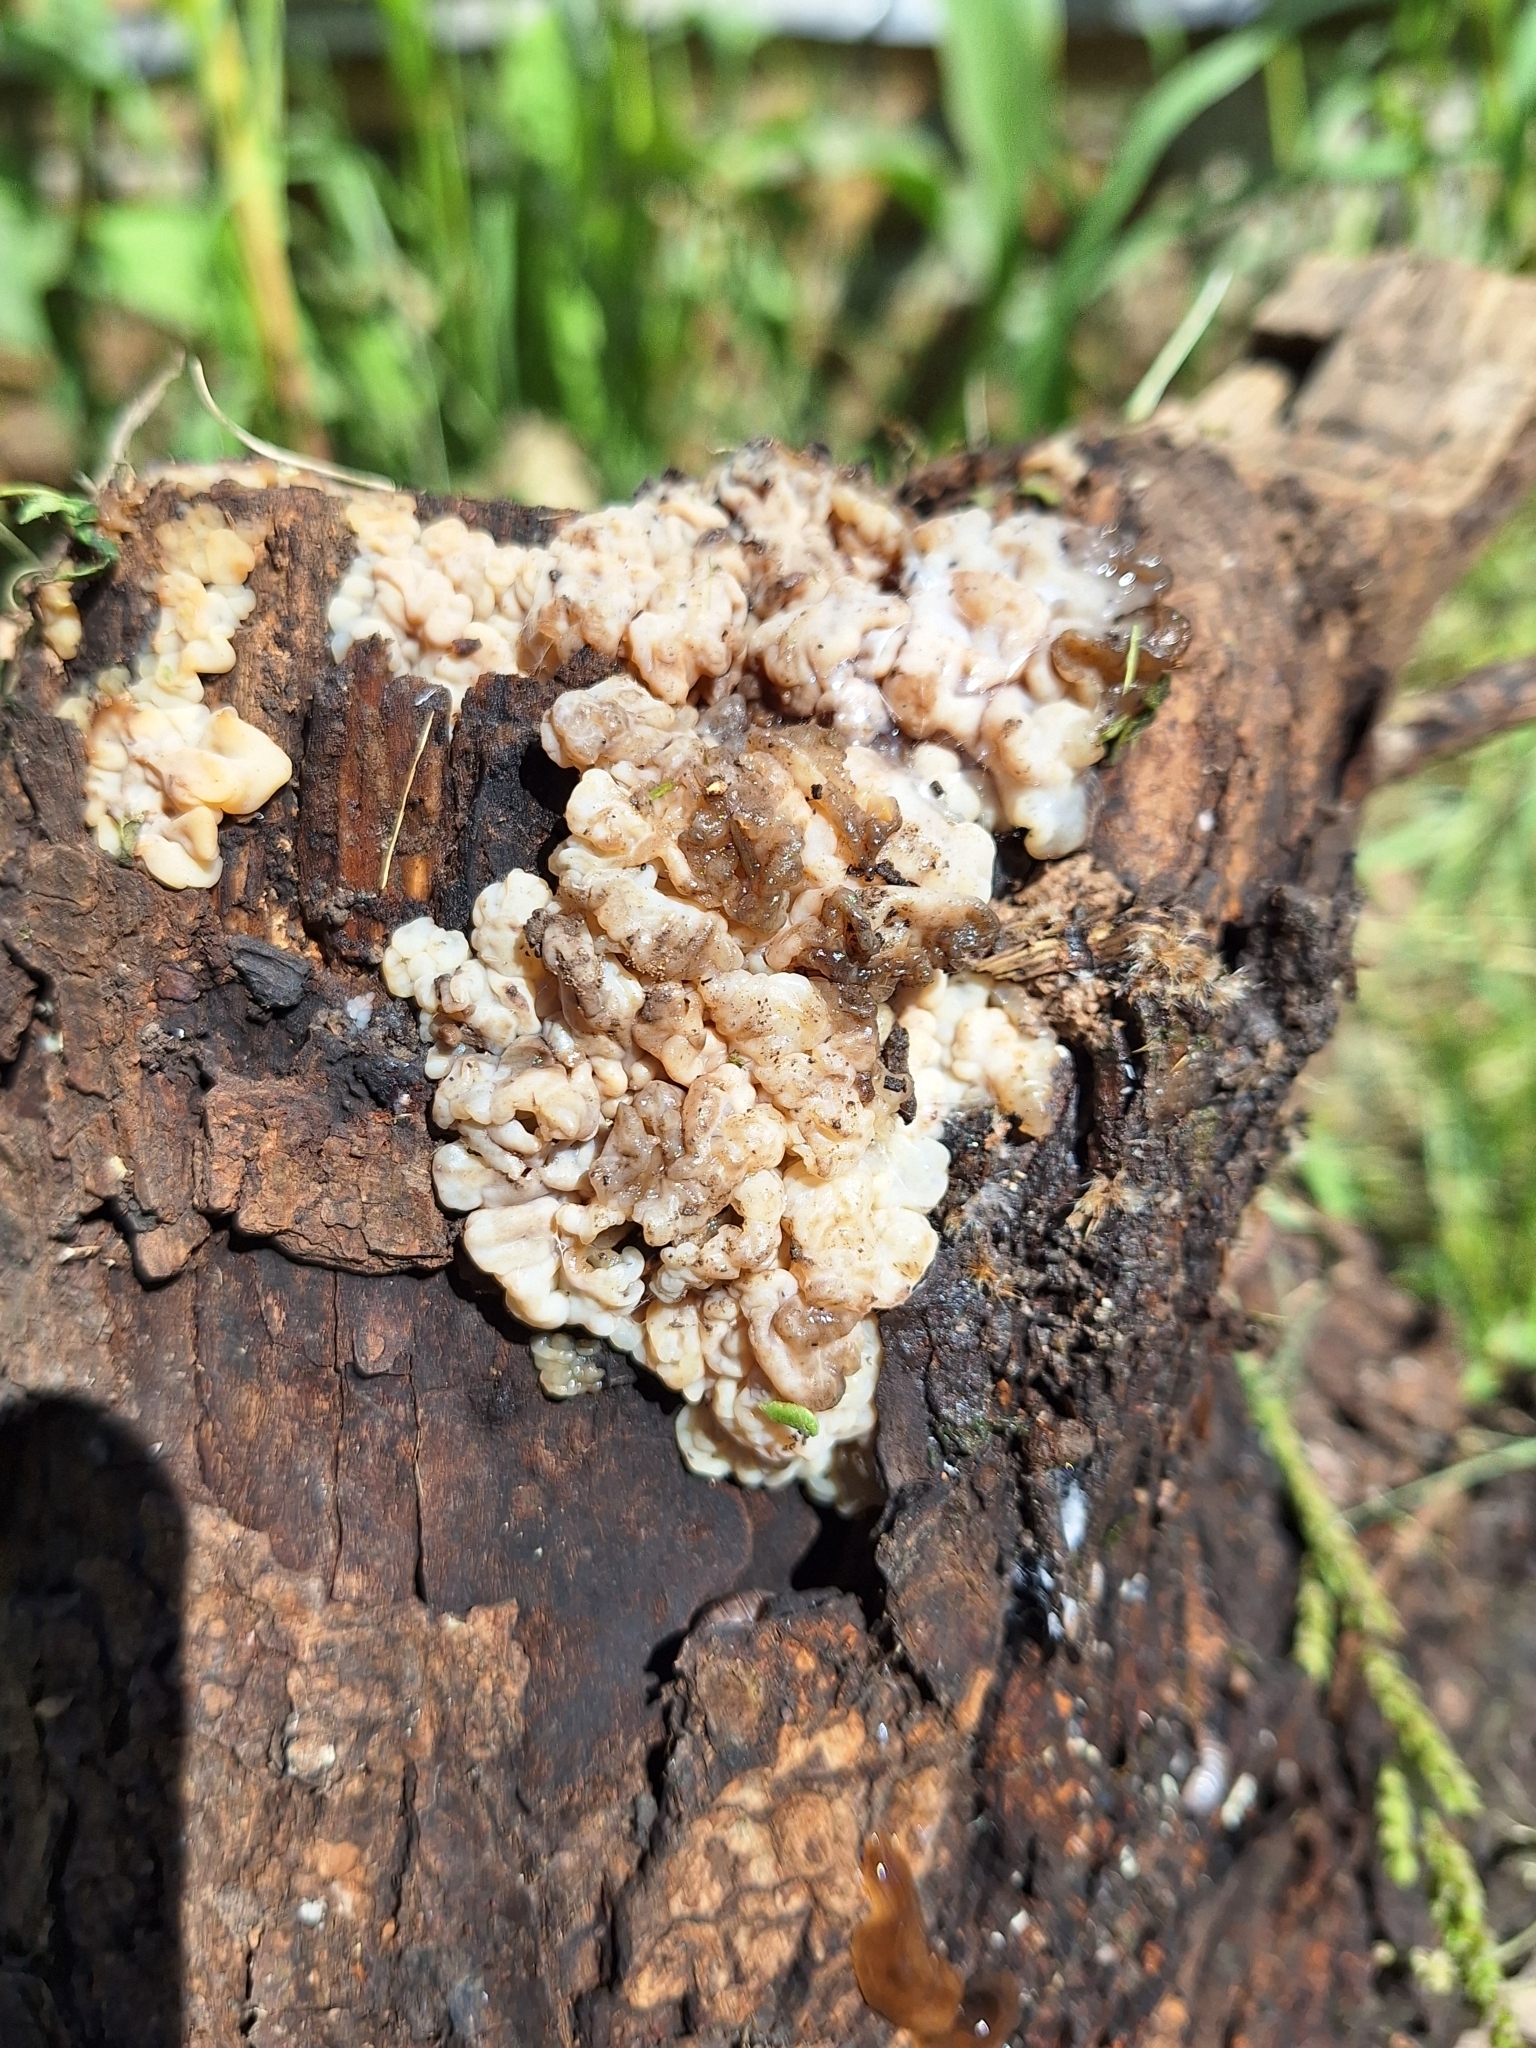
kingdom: Fungi
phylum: Basidiomycota
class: Agaricomycetes
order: Auriculariales
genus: Ductifera
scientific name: Ductifera pululahuana
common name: White jelly fungus
